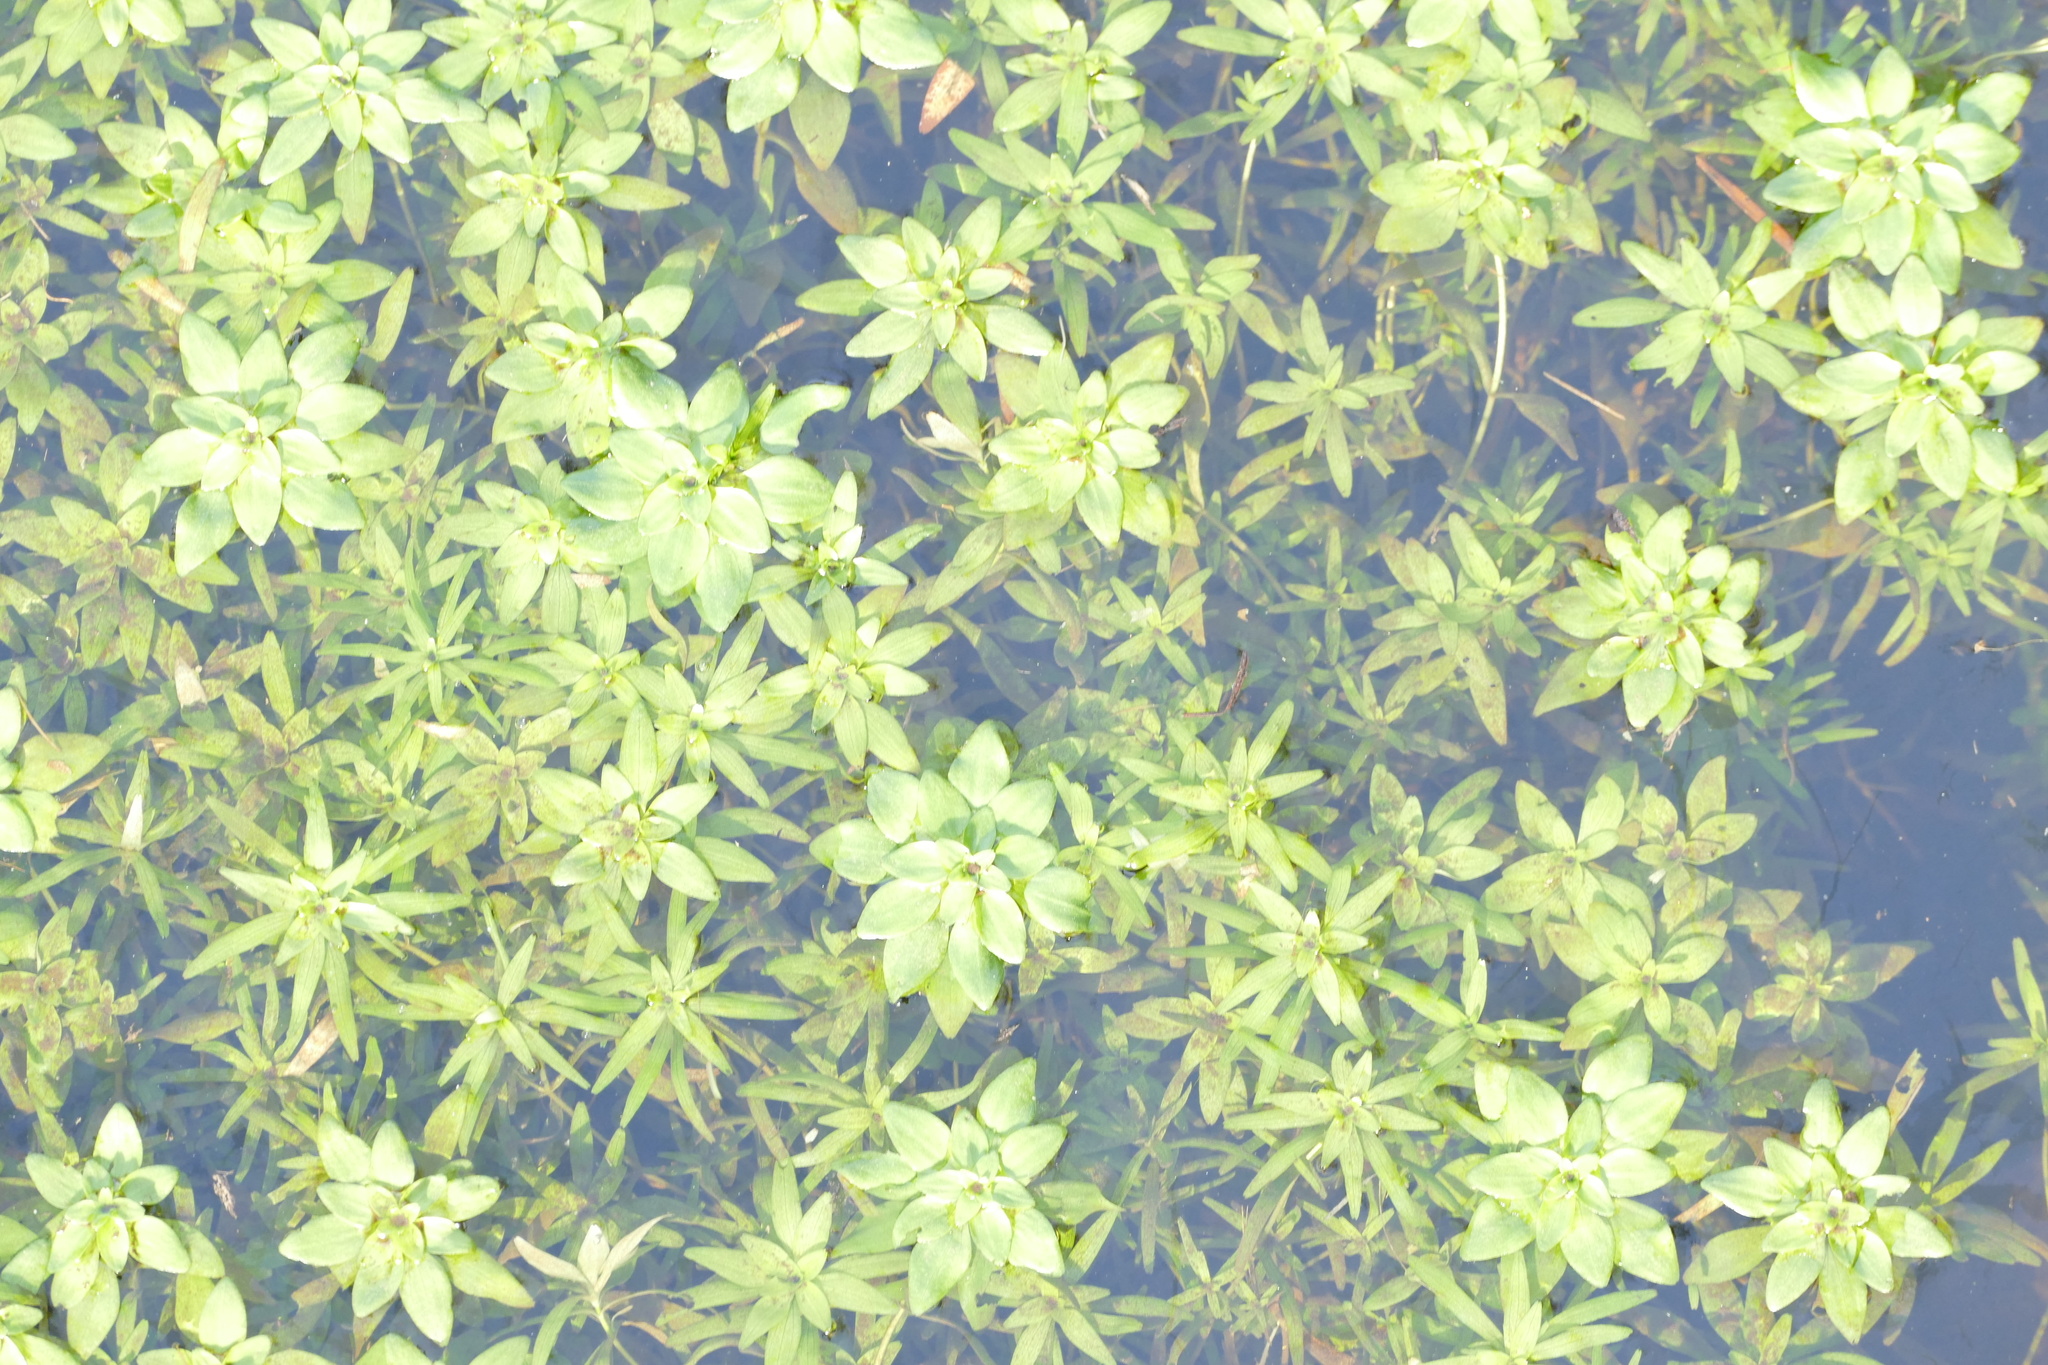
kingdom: Plantae
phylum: Tracheophyta
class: Magnoliopsida
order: Lamiales
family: Plantaginaceae
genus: Callitriche
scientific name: Callitriche obtusangula
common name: Blunt-fruited water-starwort
